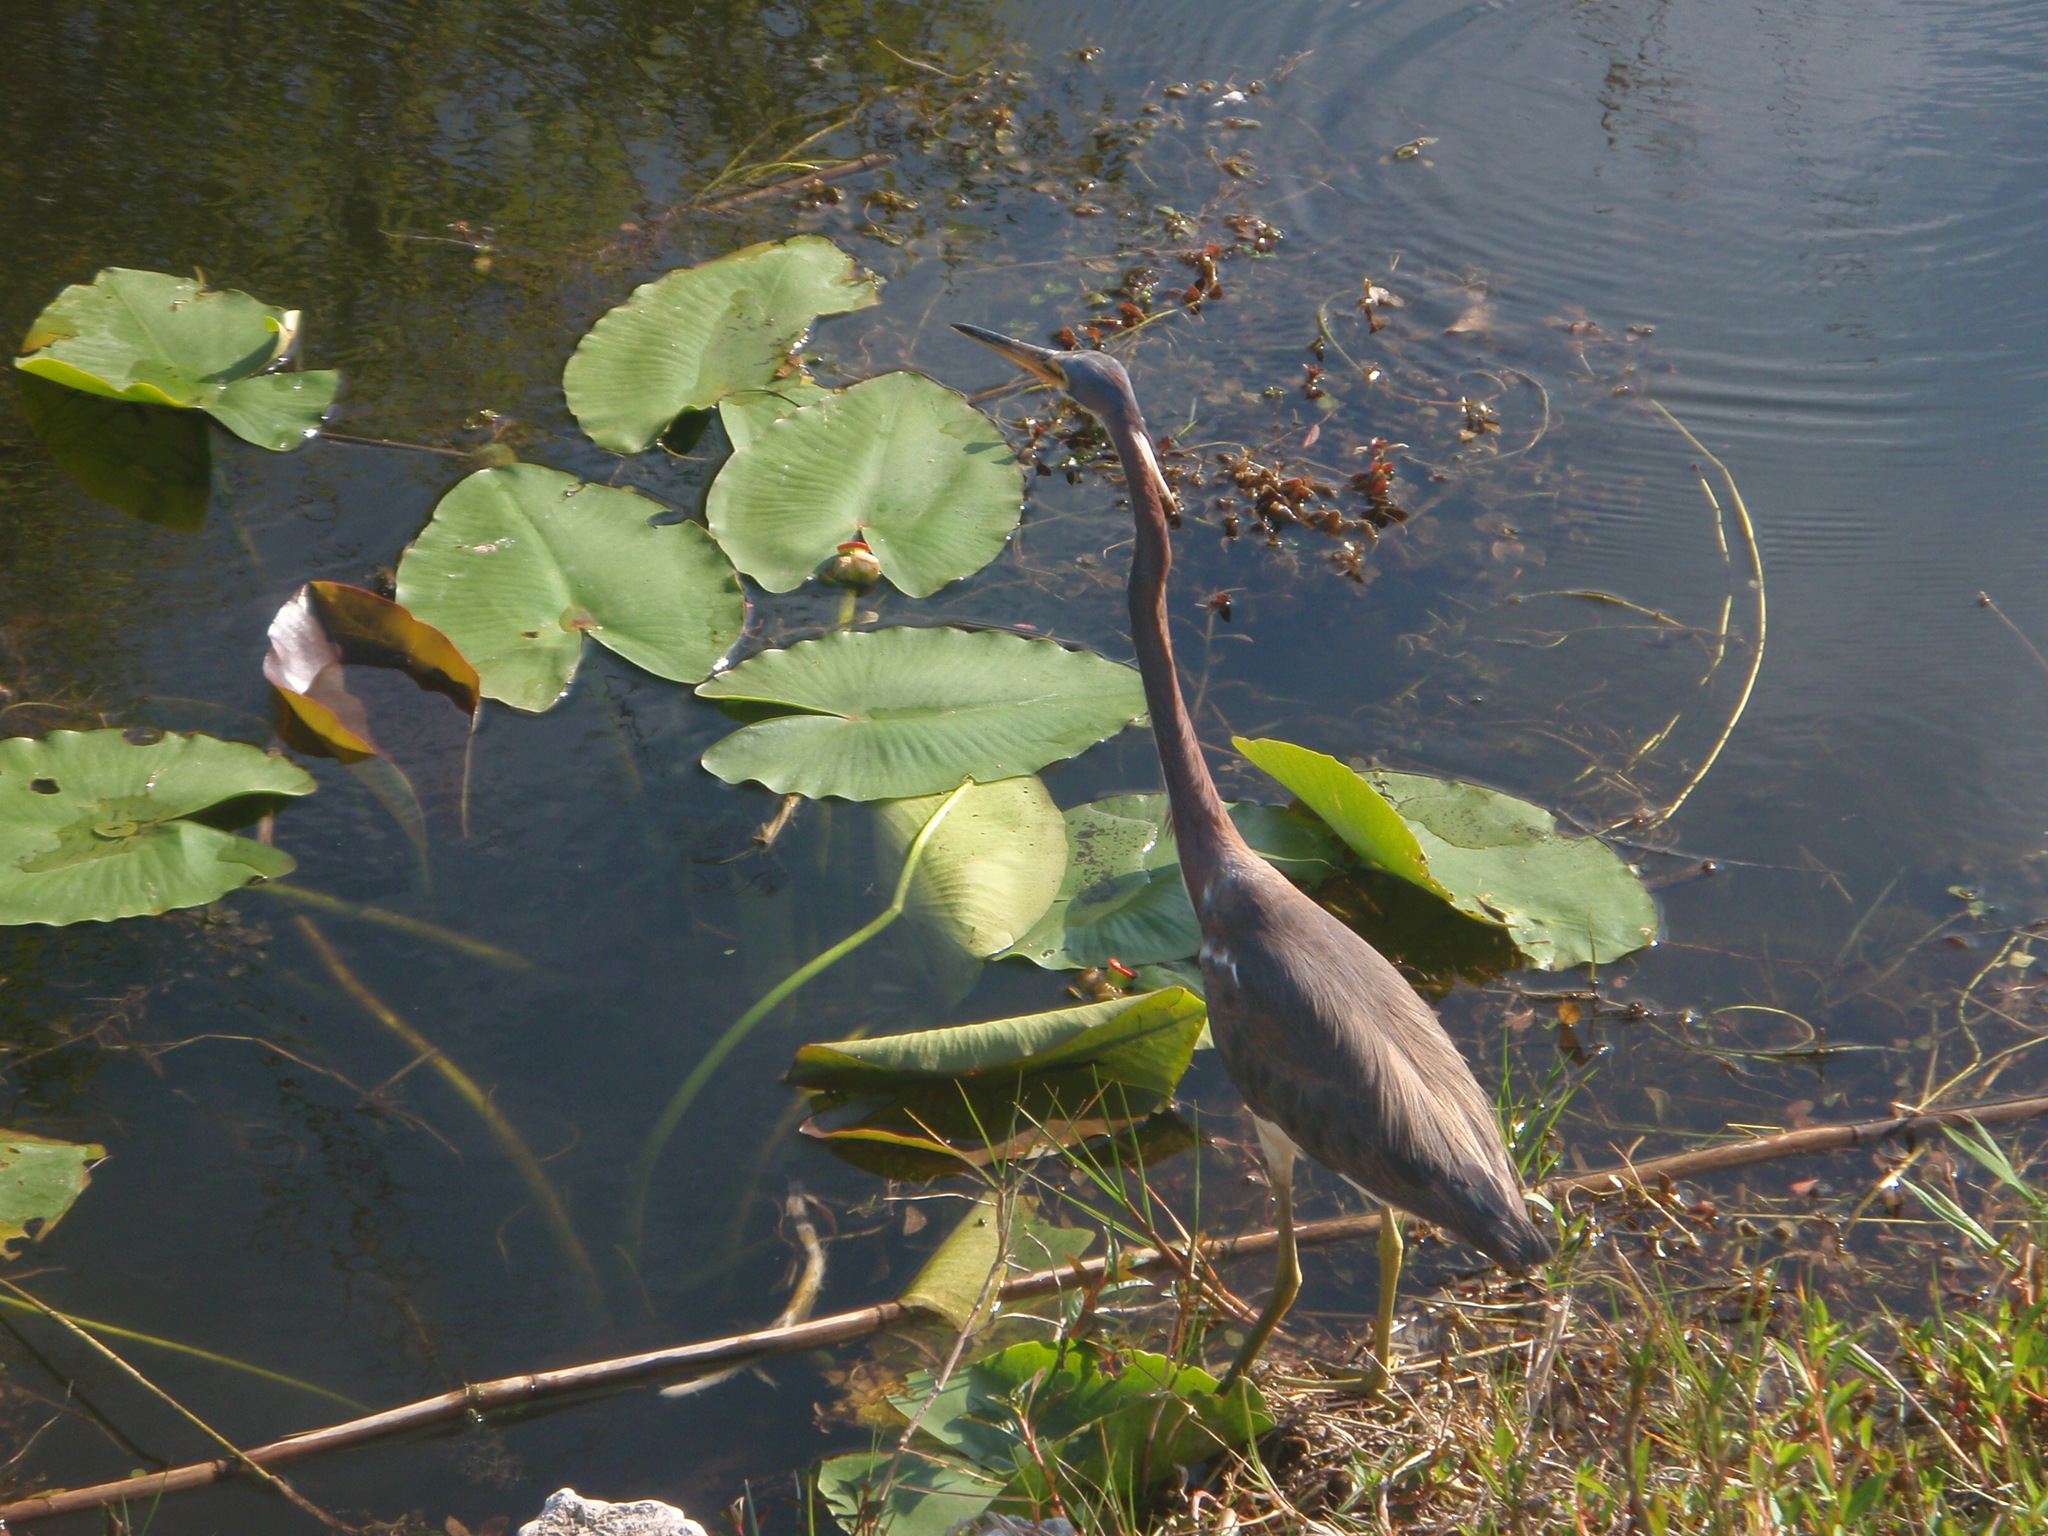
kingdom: Animalia
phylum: Chordata
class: Aves
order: Pelecaniformes
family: Ardeidae
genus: Egretta
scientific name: Egretta tricolor
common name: Tricolored heron
